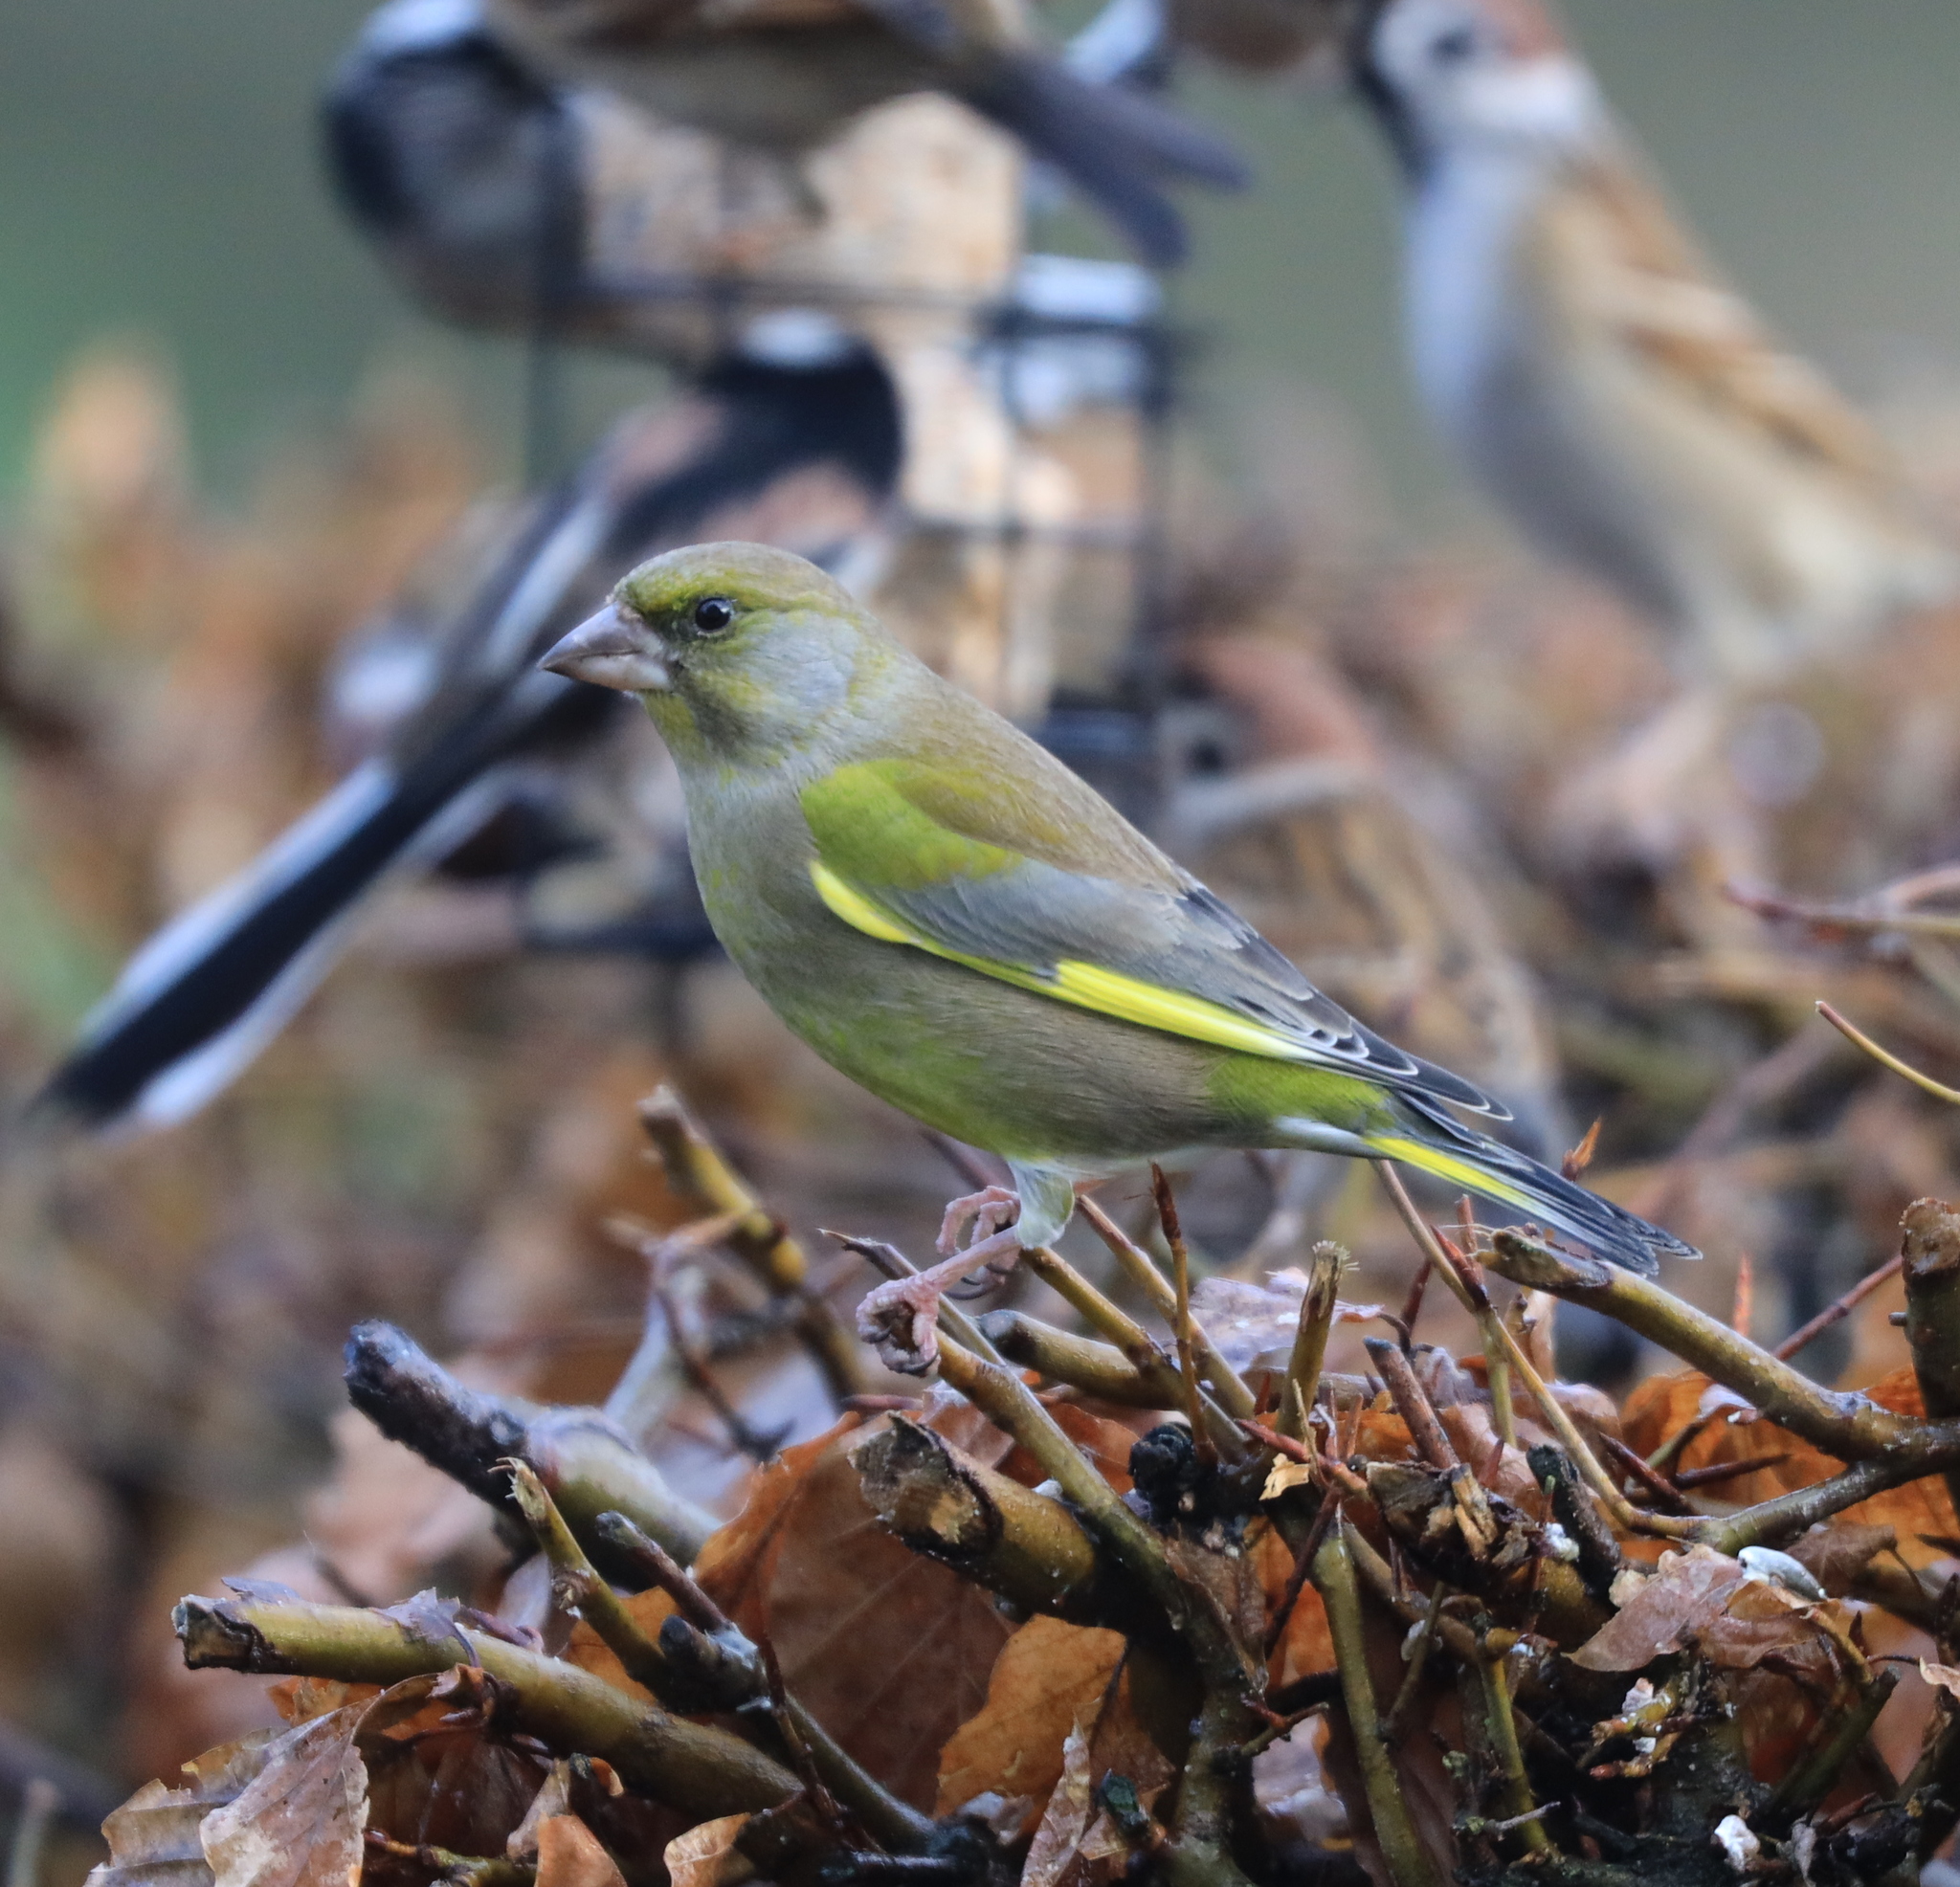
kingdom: Plantae
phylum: Tracheophyta
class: Liliopsida
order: Poales
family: Poaceae
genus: Chloris
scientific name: Chloris chloris
